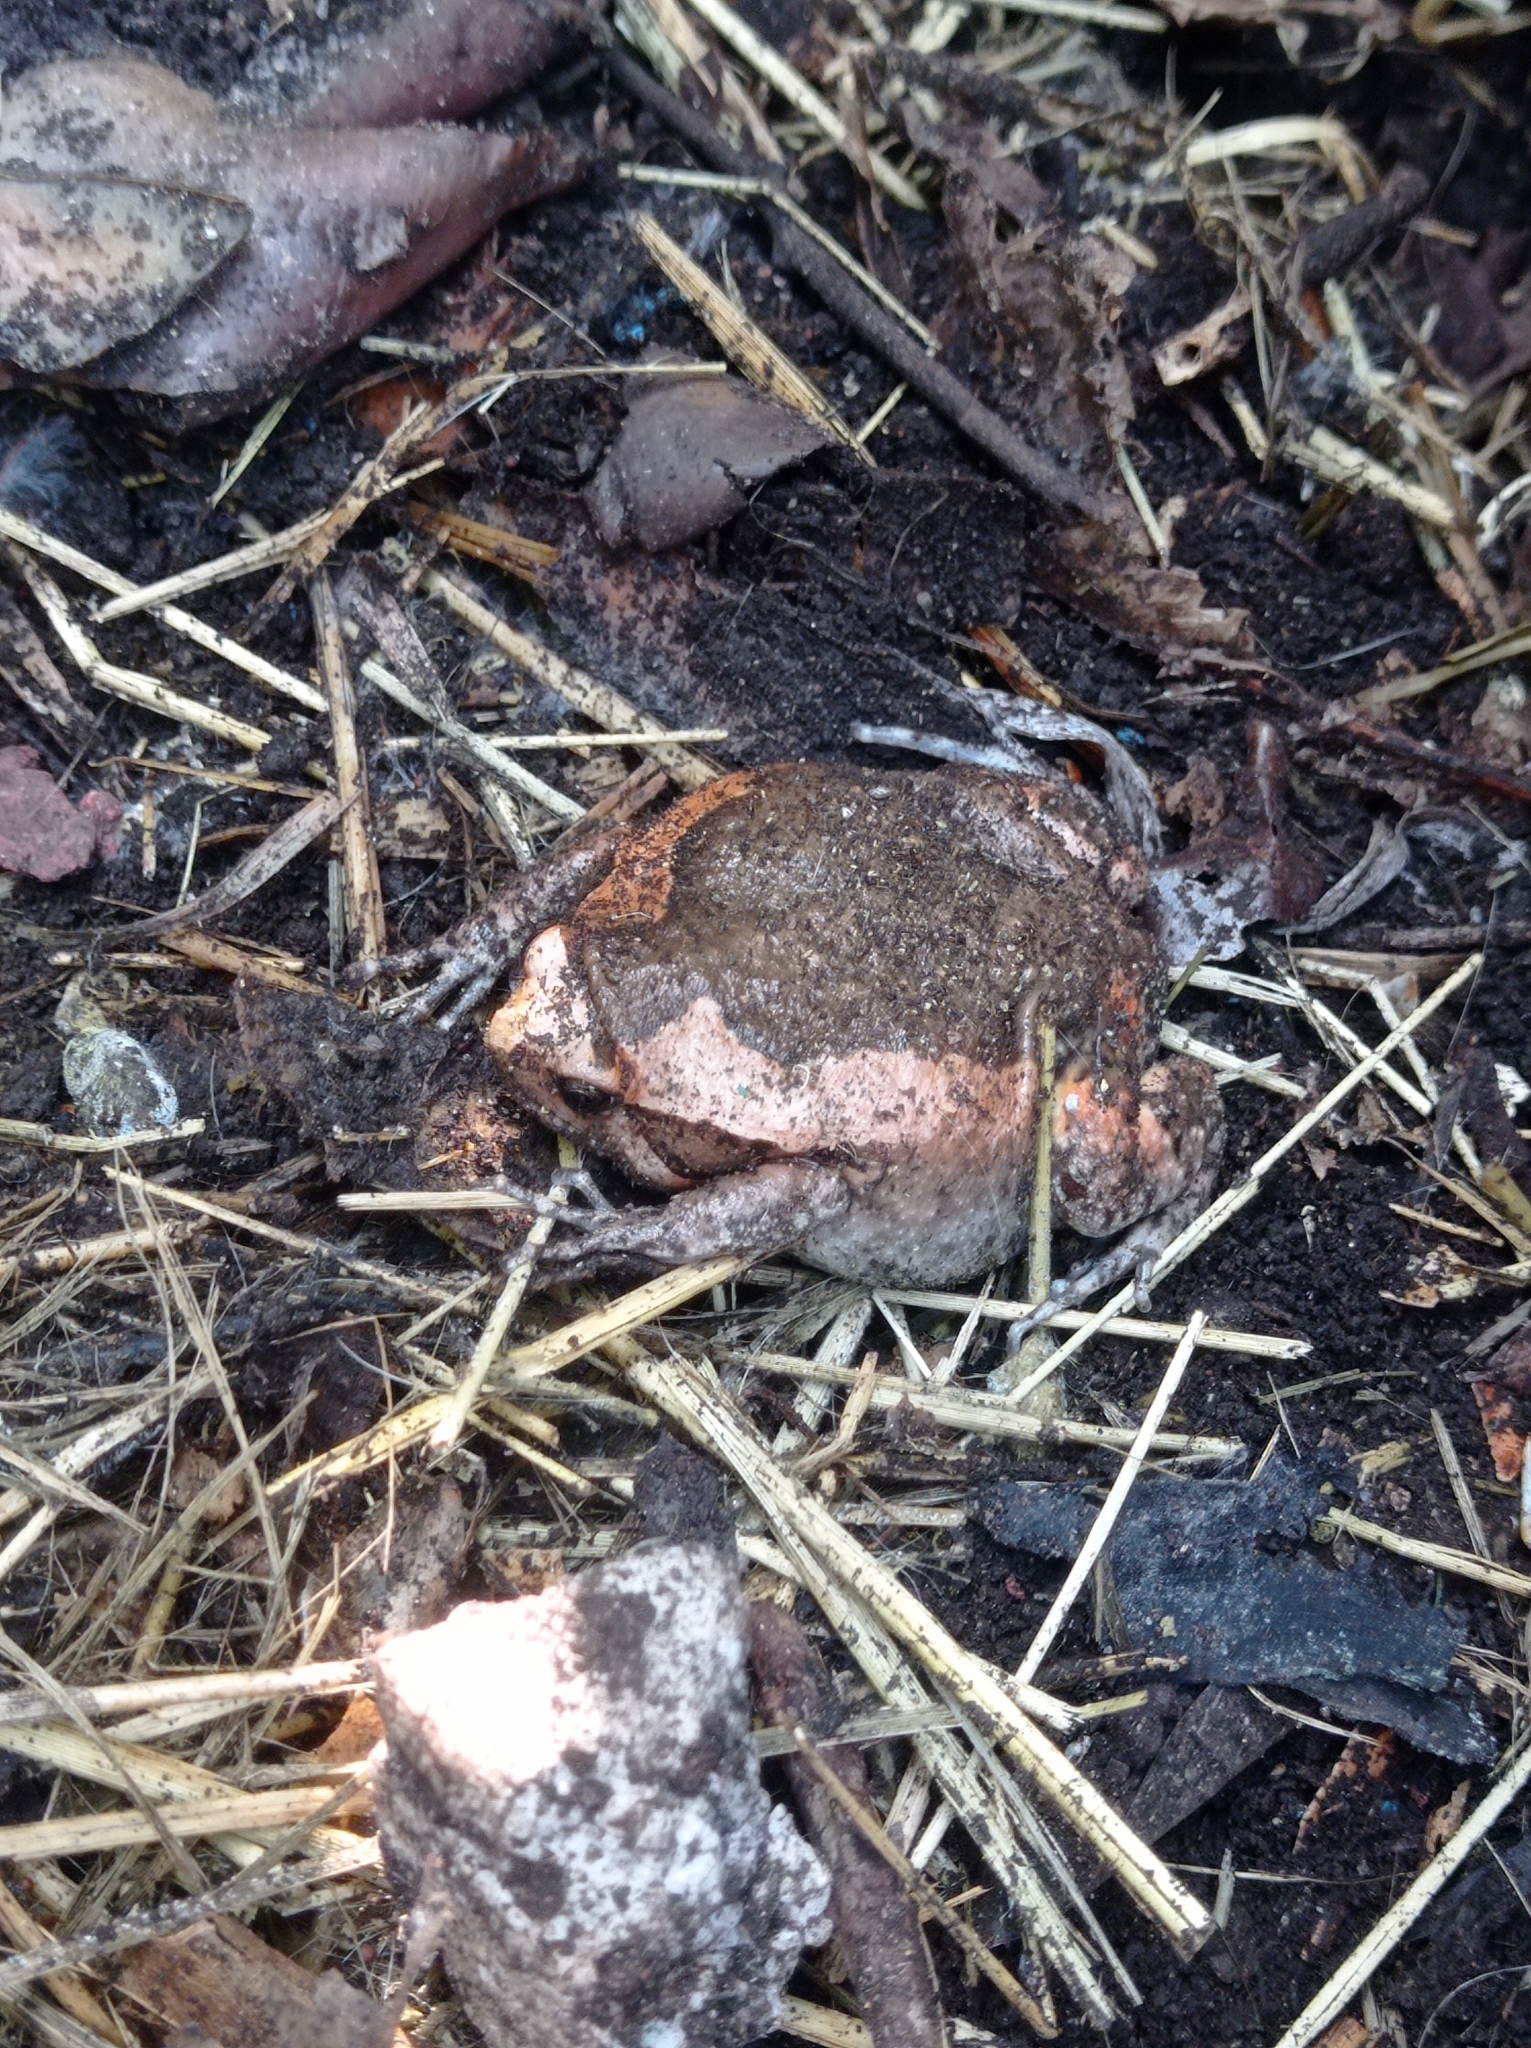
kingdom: Animalia
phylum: Chordata
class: Amphibia
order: Anura
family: Microhylidae
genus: Kaloula
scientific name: Kaloula pulchra
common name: Common,banded bullfrog
